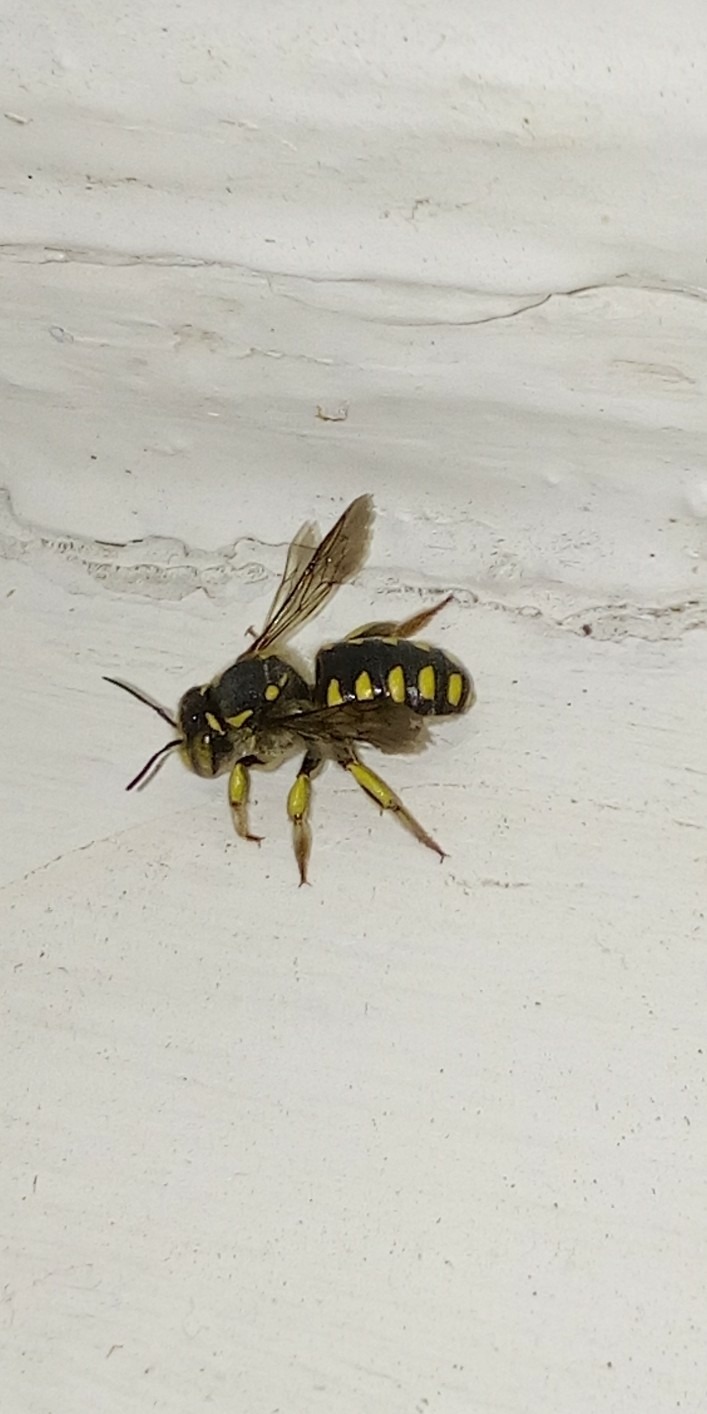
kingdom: Animalia
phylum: Arthropoda
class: Insecta
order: Hymenoptera
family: Megachilidae
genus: Anthidium
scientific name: Anthidium florentinum
